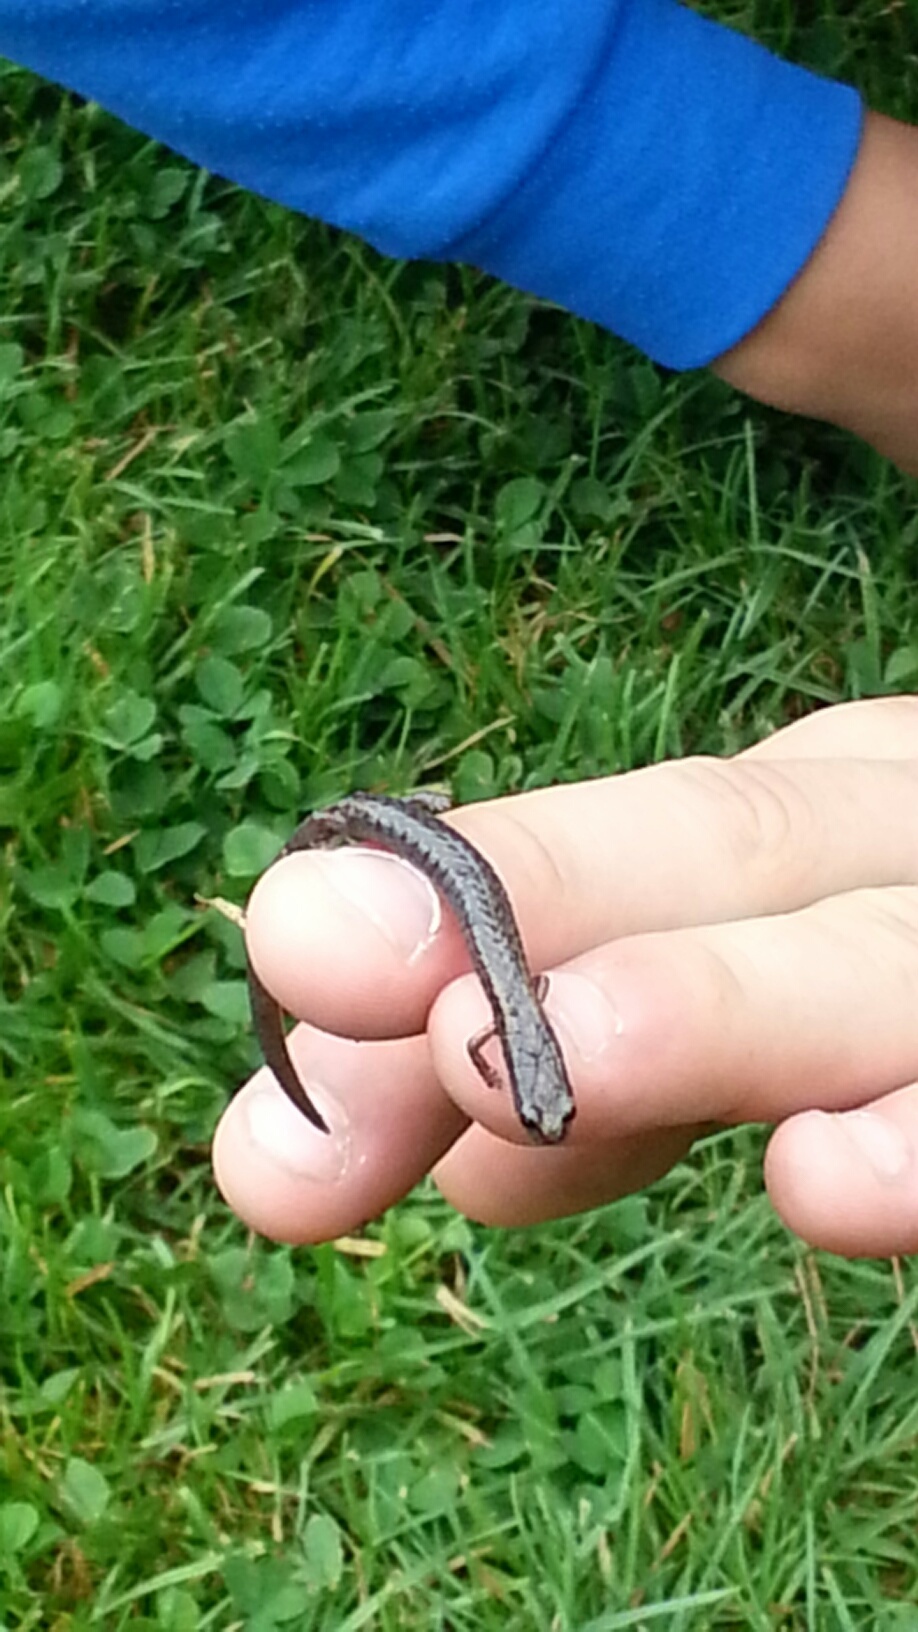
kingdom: Animalia
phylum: Chordata
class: Amphibia
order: Caudata
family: Plethodontidae
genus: Batrachoseps
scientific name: Batrachoseps attenuatus
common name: California slender salamander
